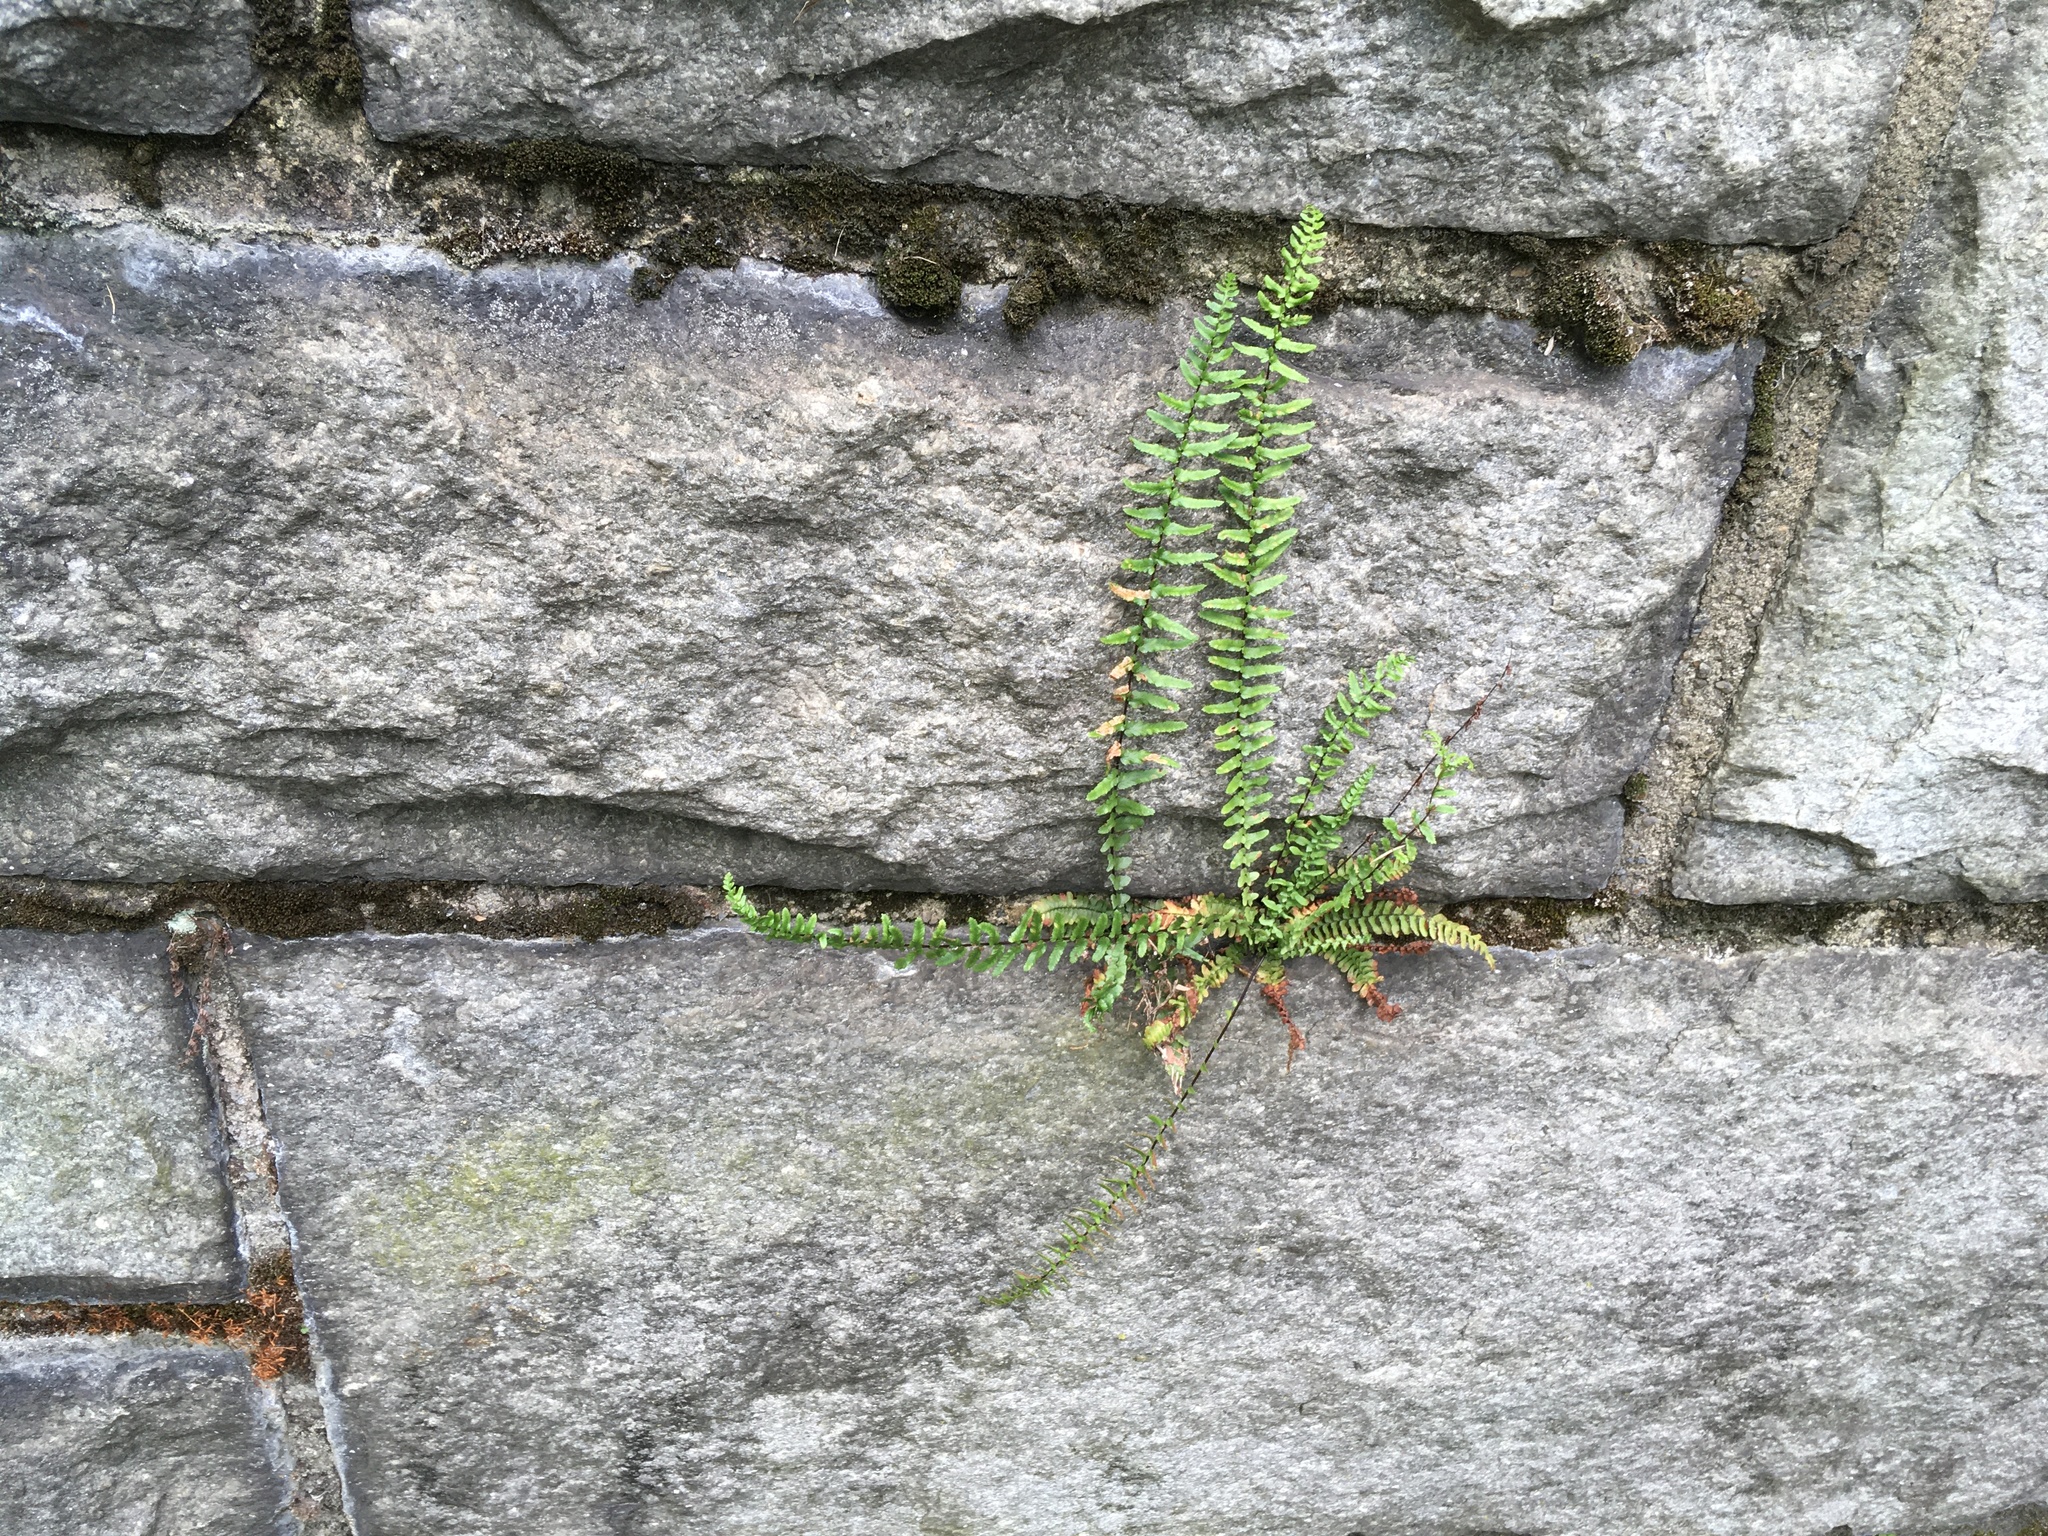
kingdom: Plantae
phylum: Tracheophyta
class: Polypodiopsida
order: Polypodiales
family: Aspleniaceae
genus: Asplenium
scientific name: Asplenium platyneuron
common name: Ebony spleenwort
